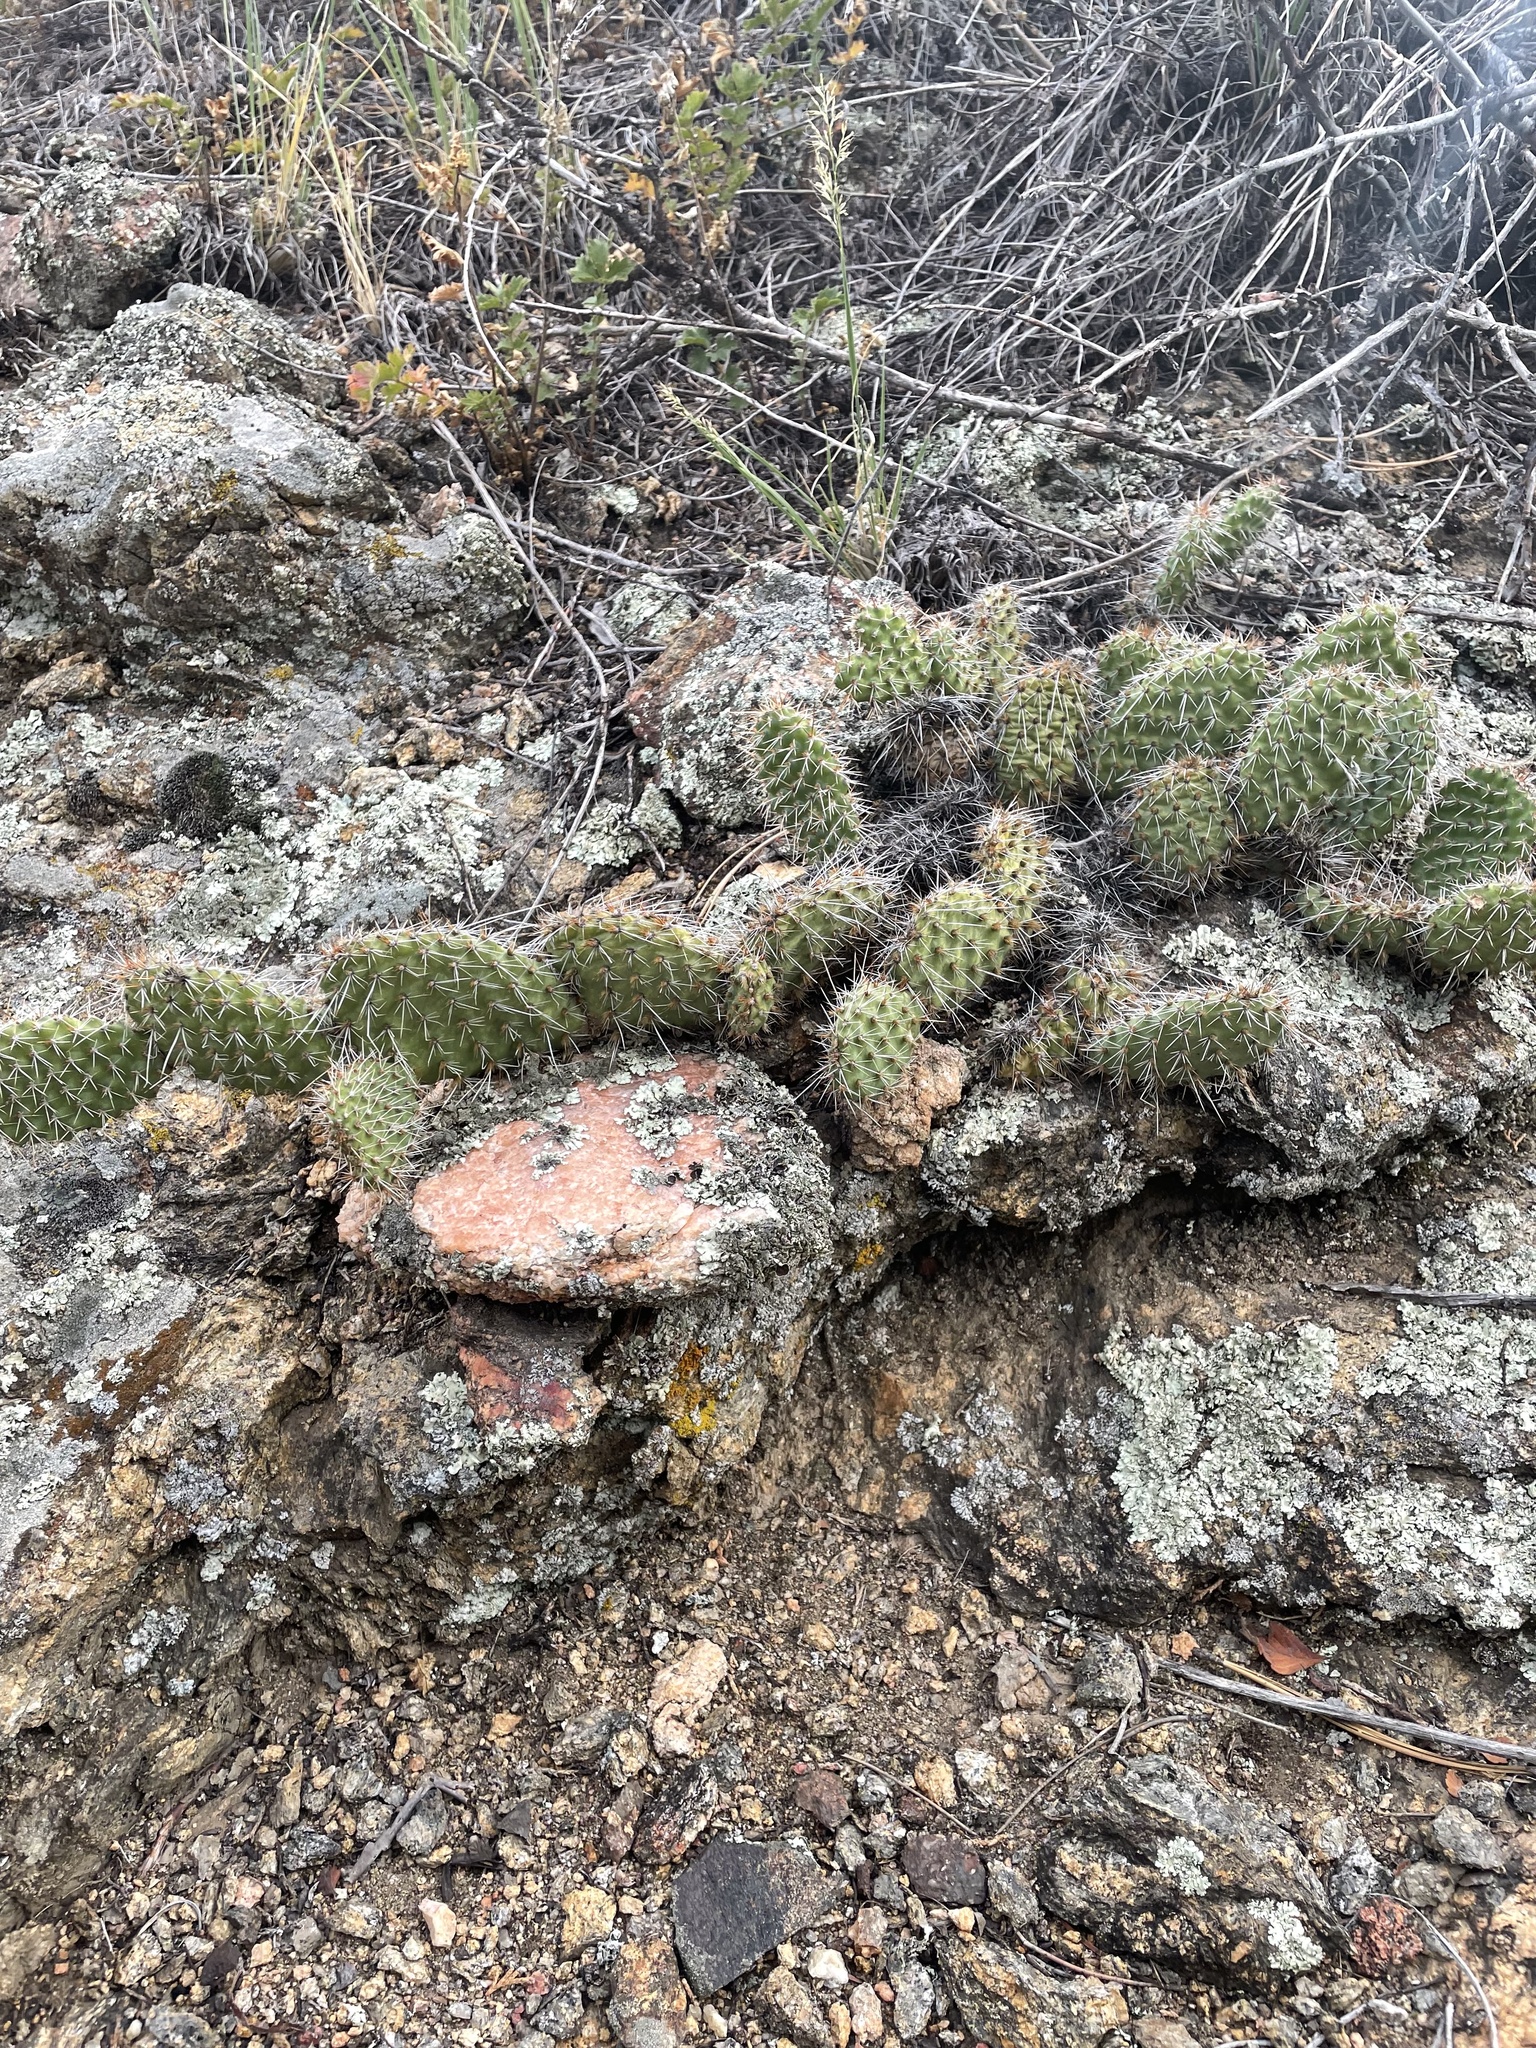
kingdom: Plantae
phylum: Tracheophyta
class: Magnoliopsida
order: Caryophyllales
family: Cactaceae
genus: Opuntia
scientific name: Opuntia polyacantha
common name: Plains prickly-pear
